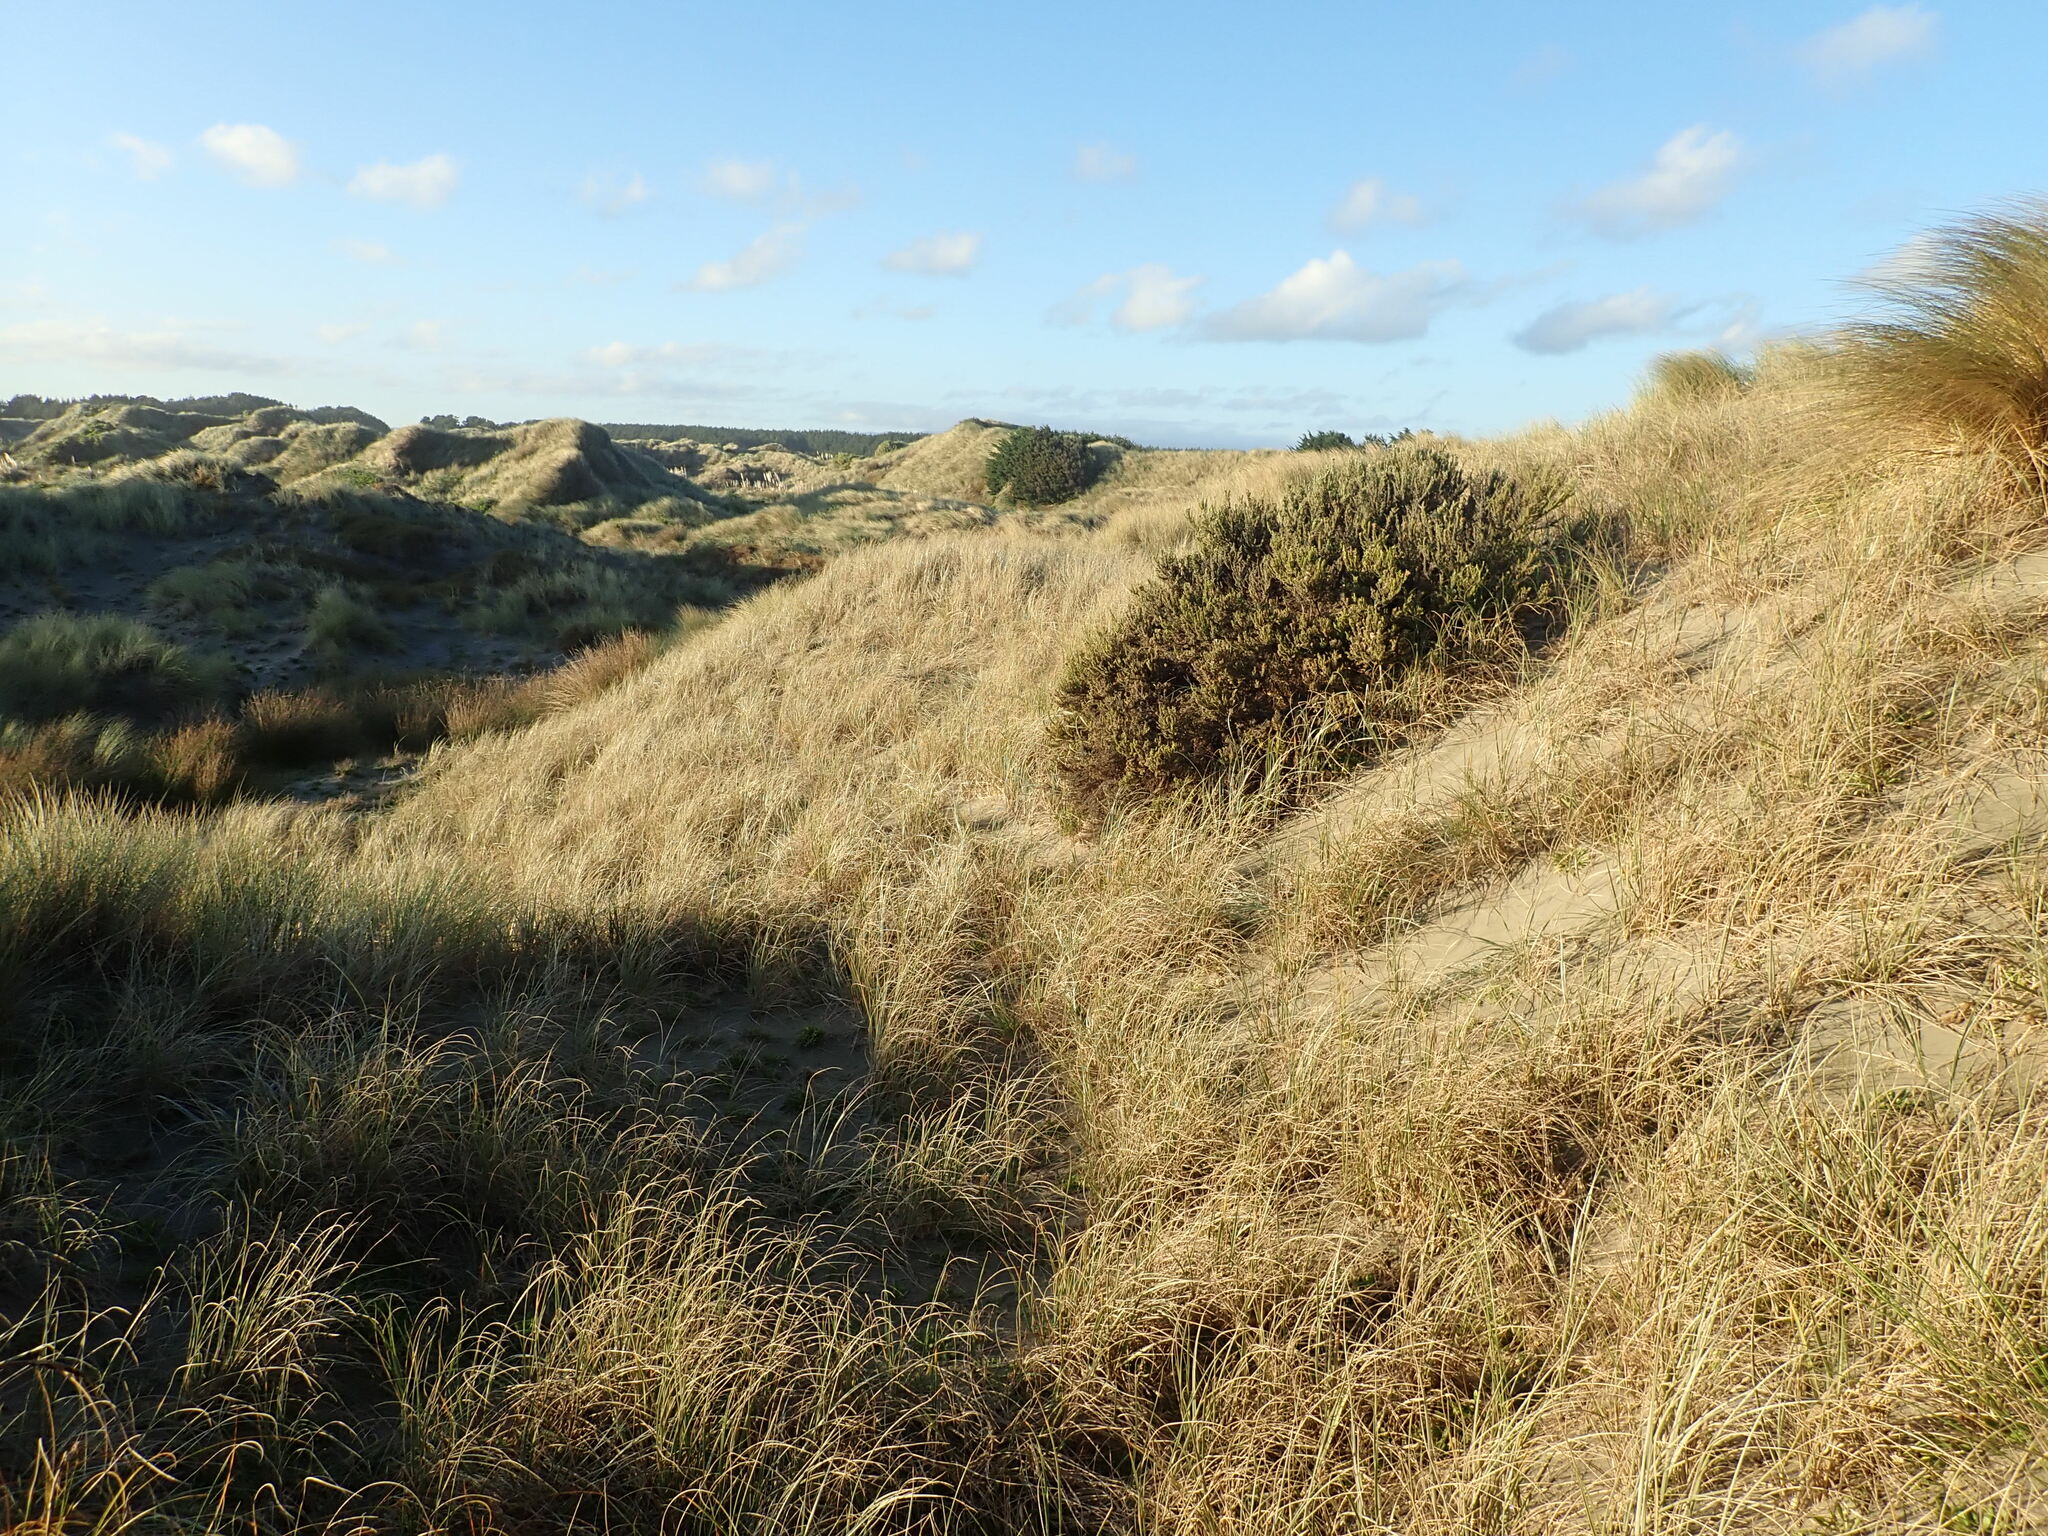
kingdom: Plantae
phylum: Tracheophyta
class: Magnoliopsida
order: Asterales
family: Asteraceae
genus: Ozothamnus
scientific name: Ozothamnus leptophyllus
